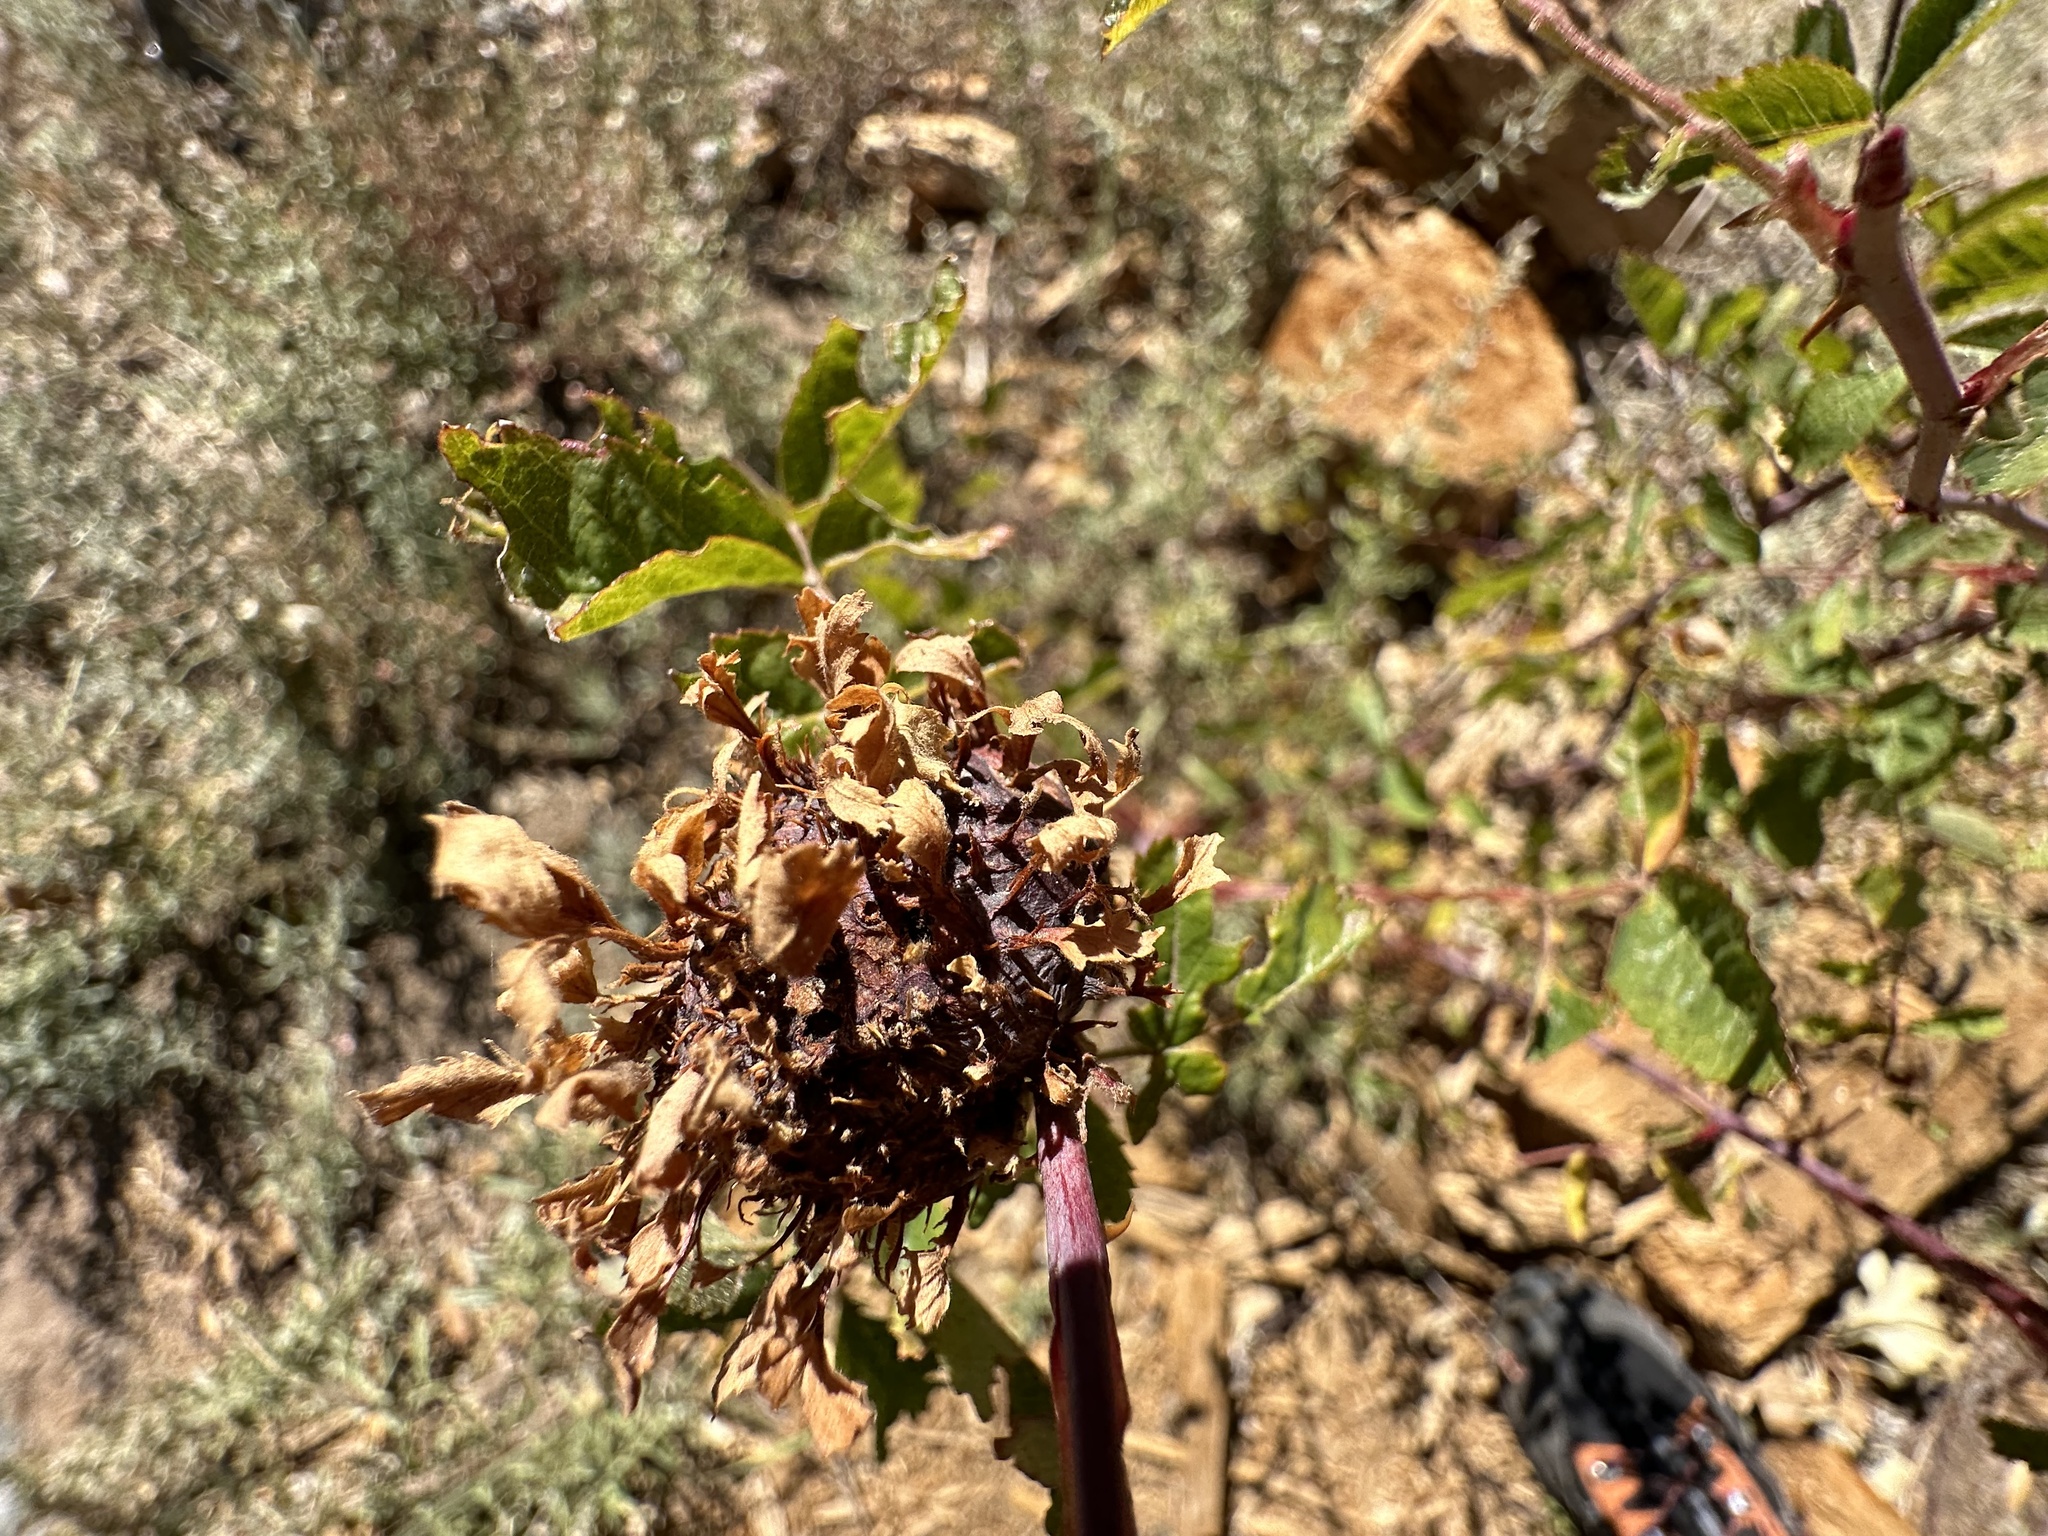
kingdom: Animalia
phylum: Arthropoda
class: Insecta
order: Hymenoptera
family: Cynipidae
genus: Diplolepis
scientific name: Diplolepis californica
